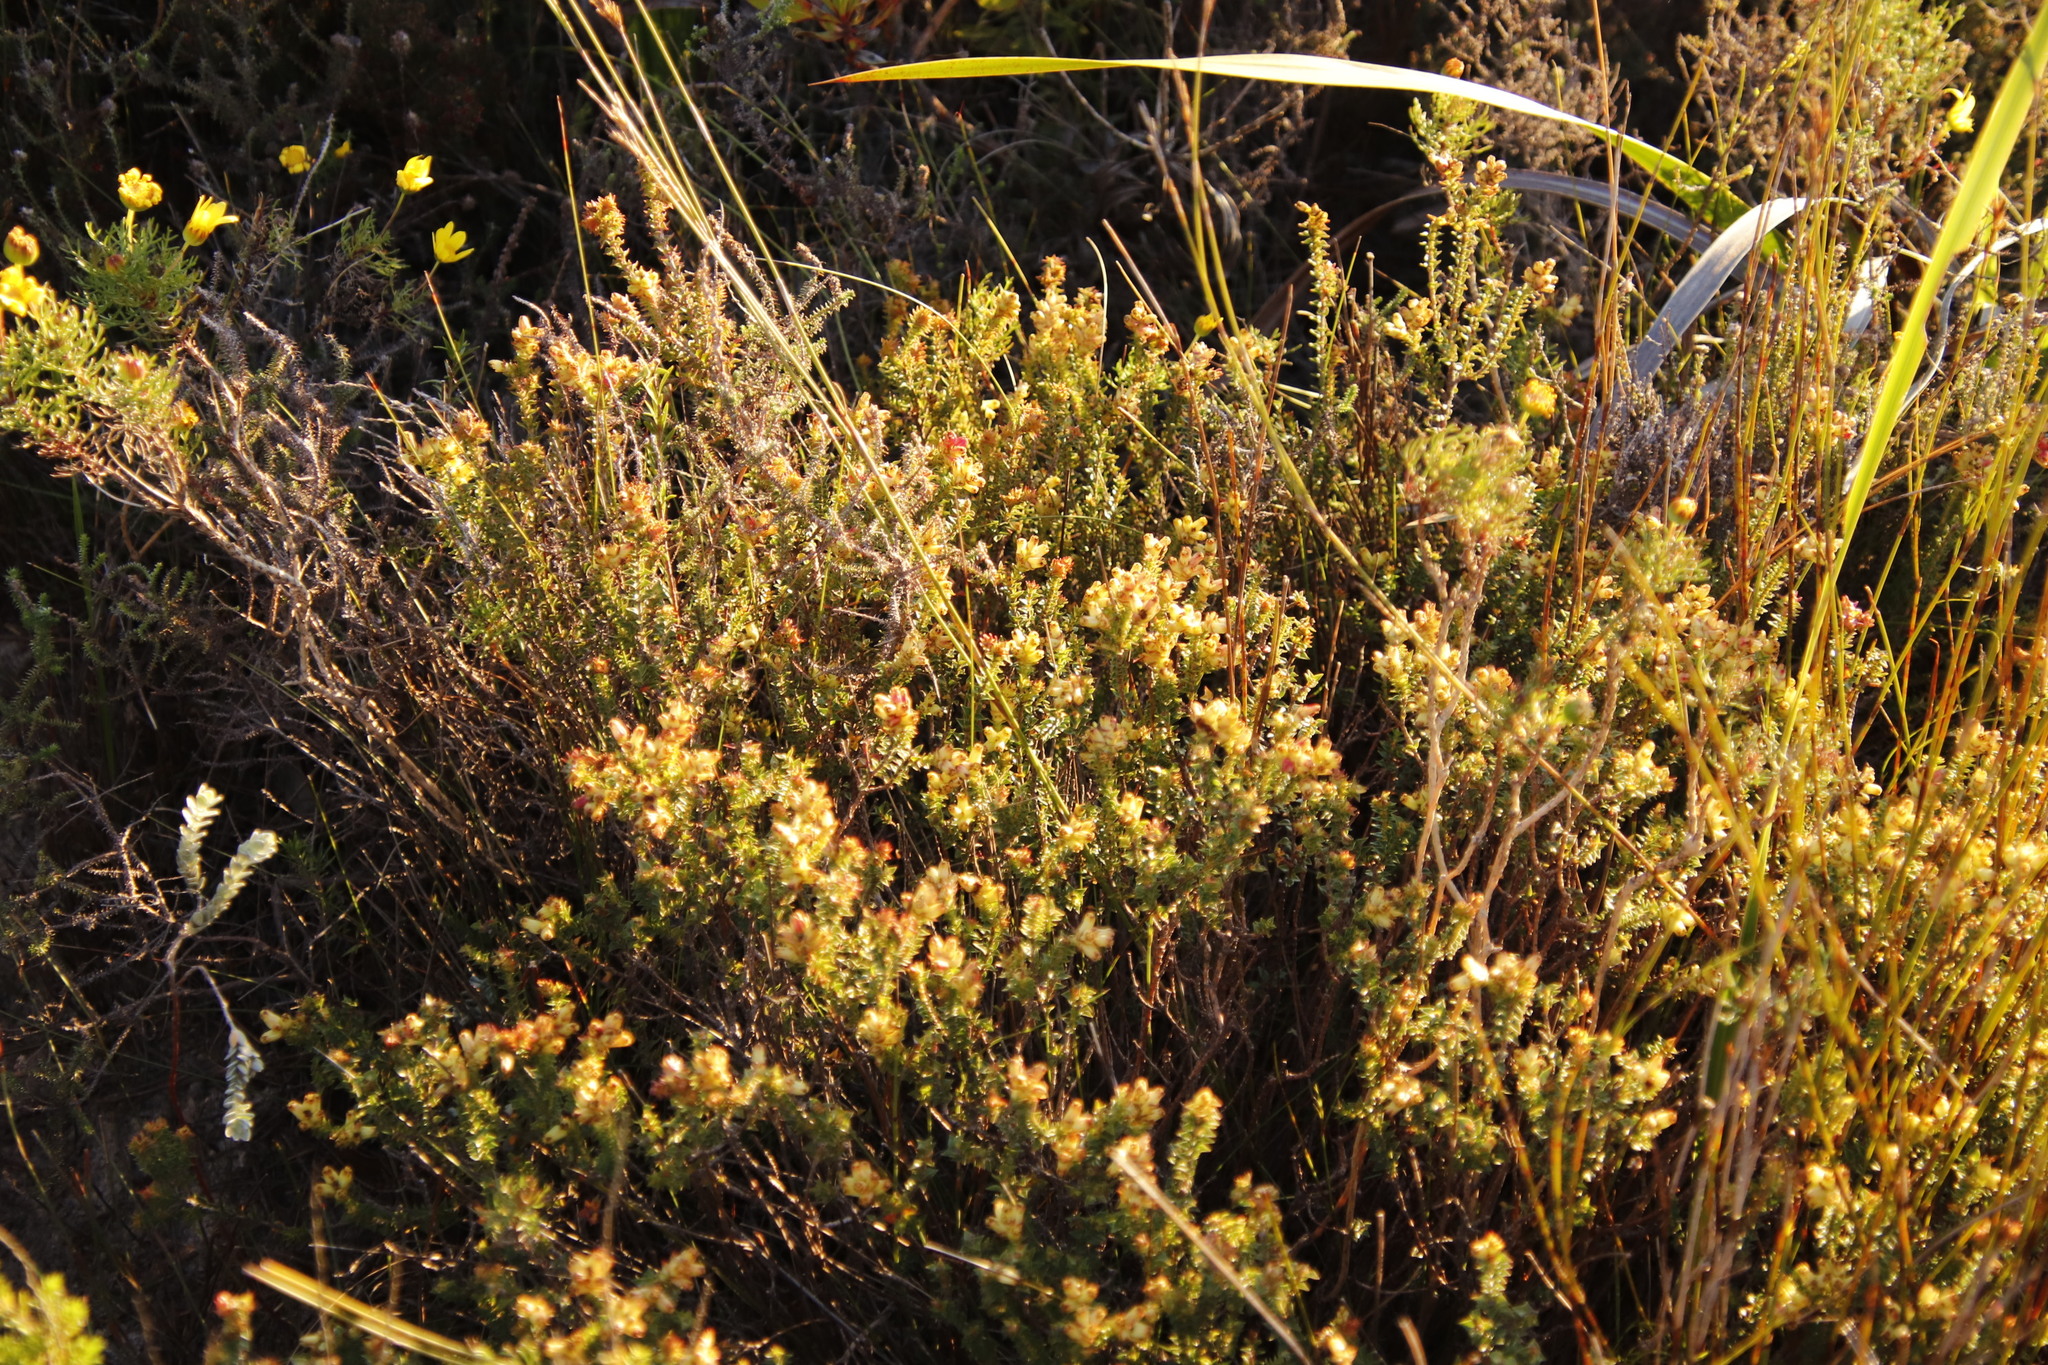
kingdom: Plantae
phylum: Tracheophyta
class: Magnoliopsida
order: Myrtales
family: Penaeaceae
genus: Penaea
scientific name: Penaea mucronata
